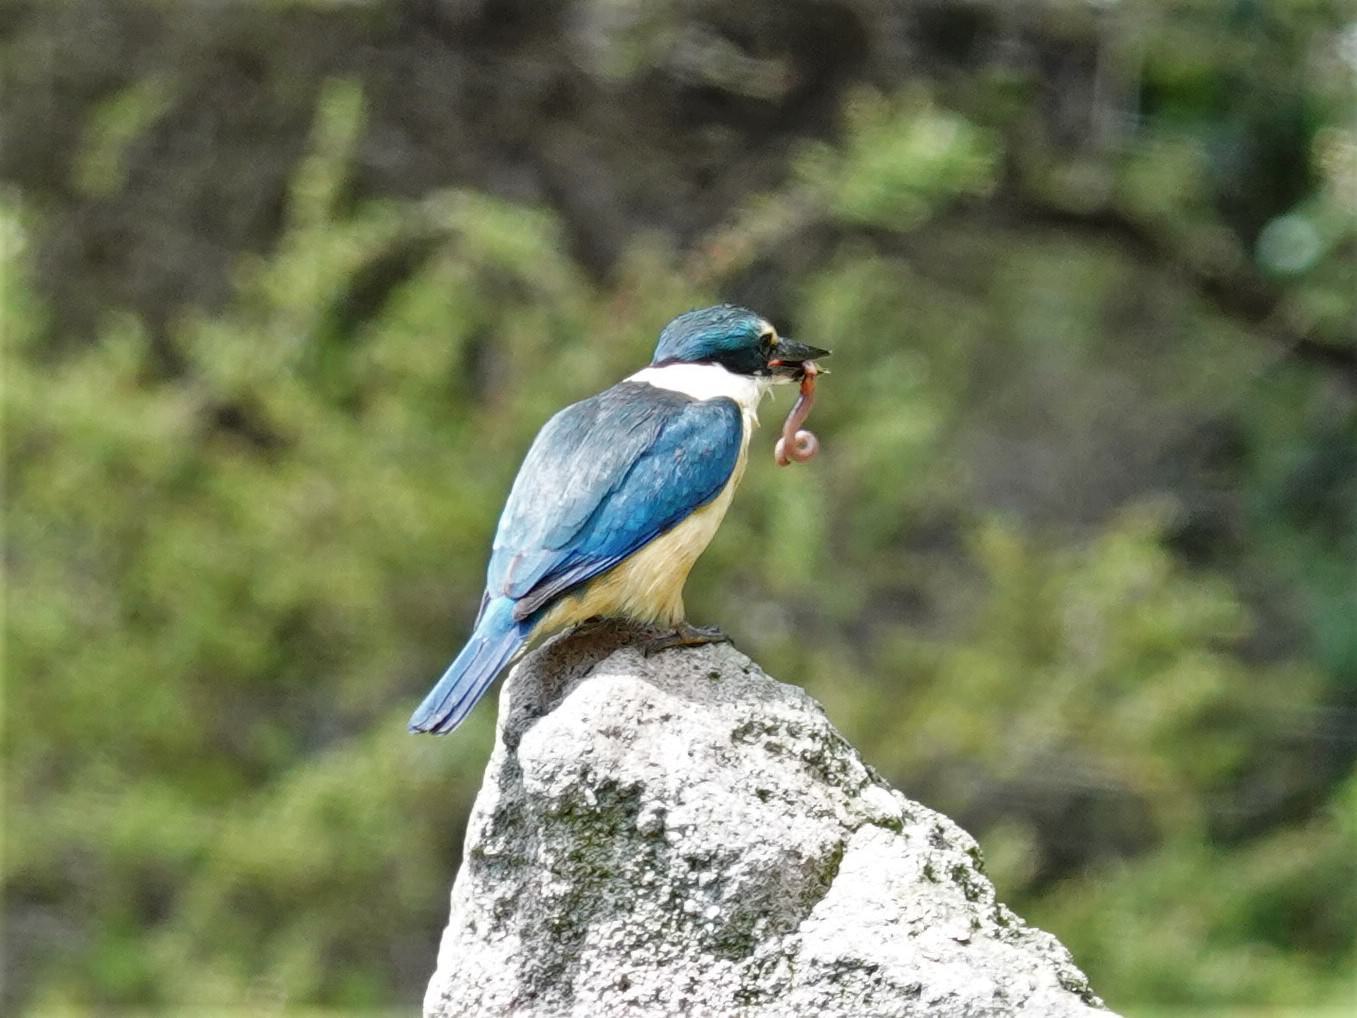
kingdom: Animalia
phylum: Chordata
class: Aves
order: Coraciiformes
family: Alcedinidae
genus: Todiramphus
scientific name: Todiramphus sanctus
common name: Sacred kingfisher
